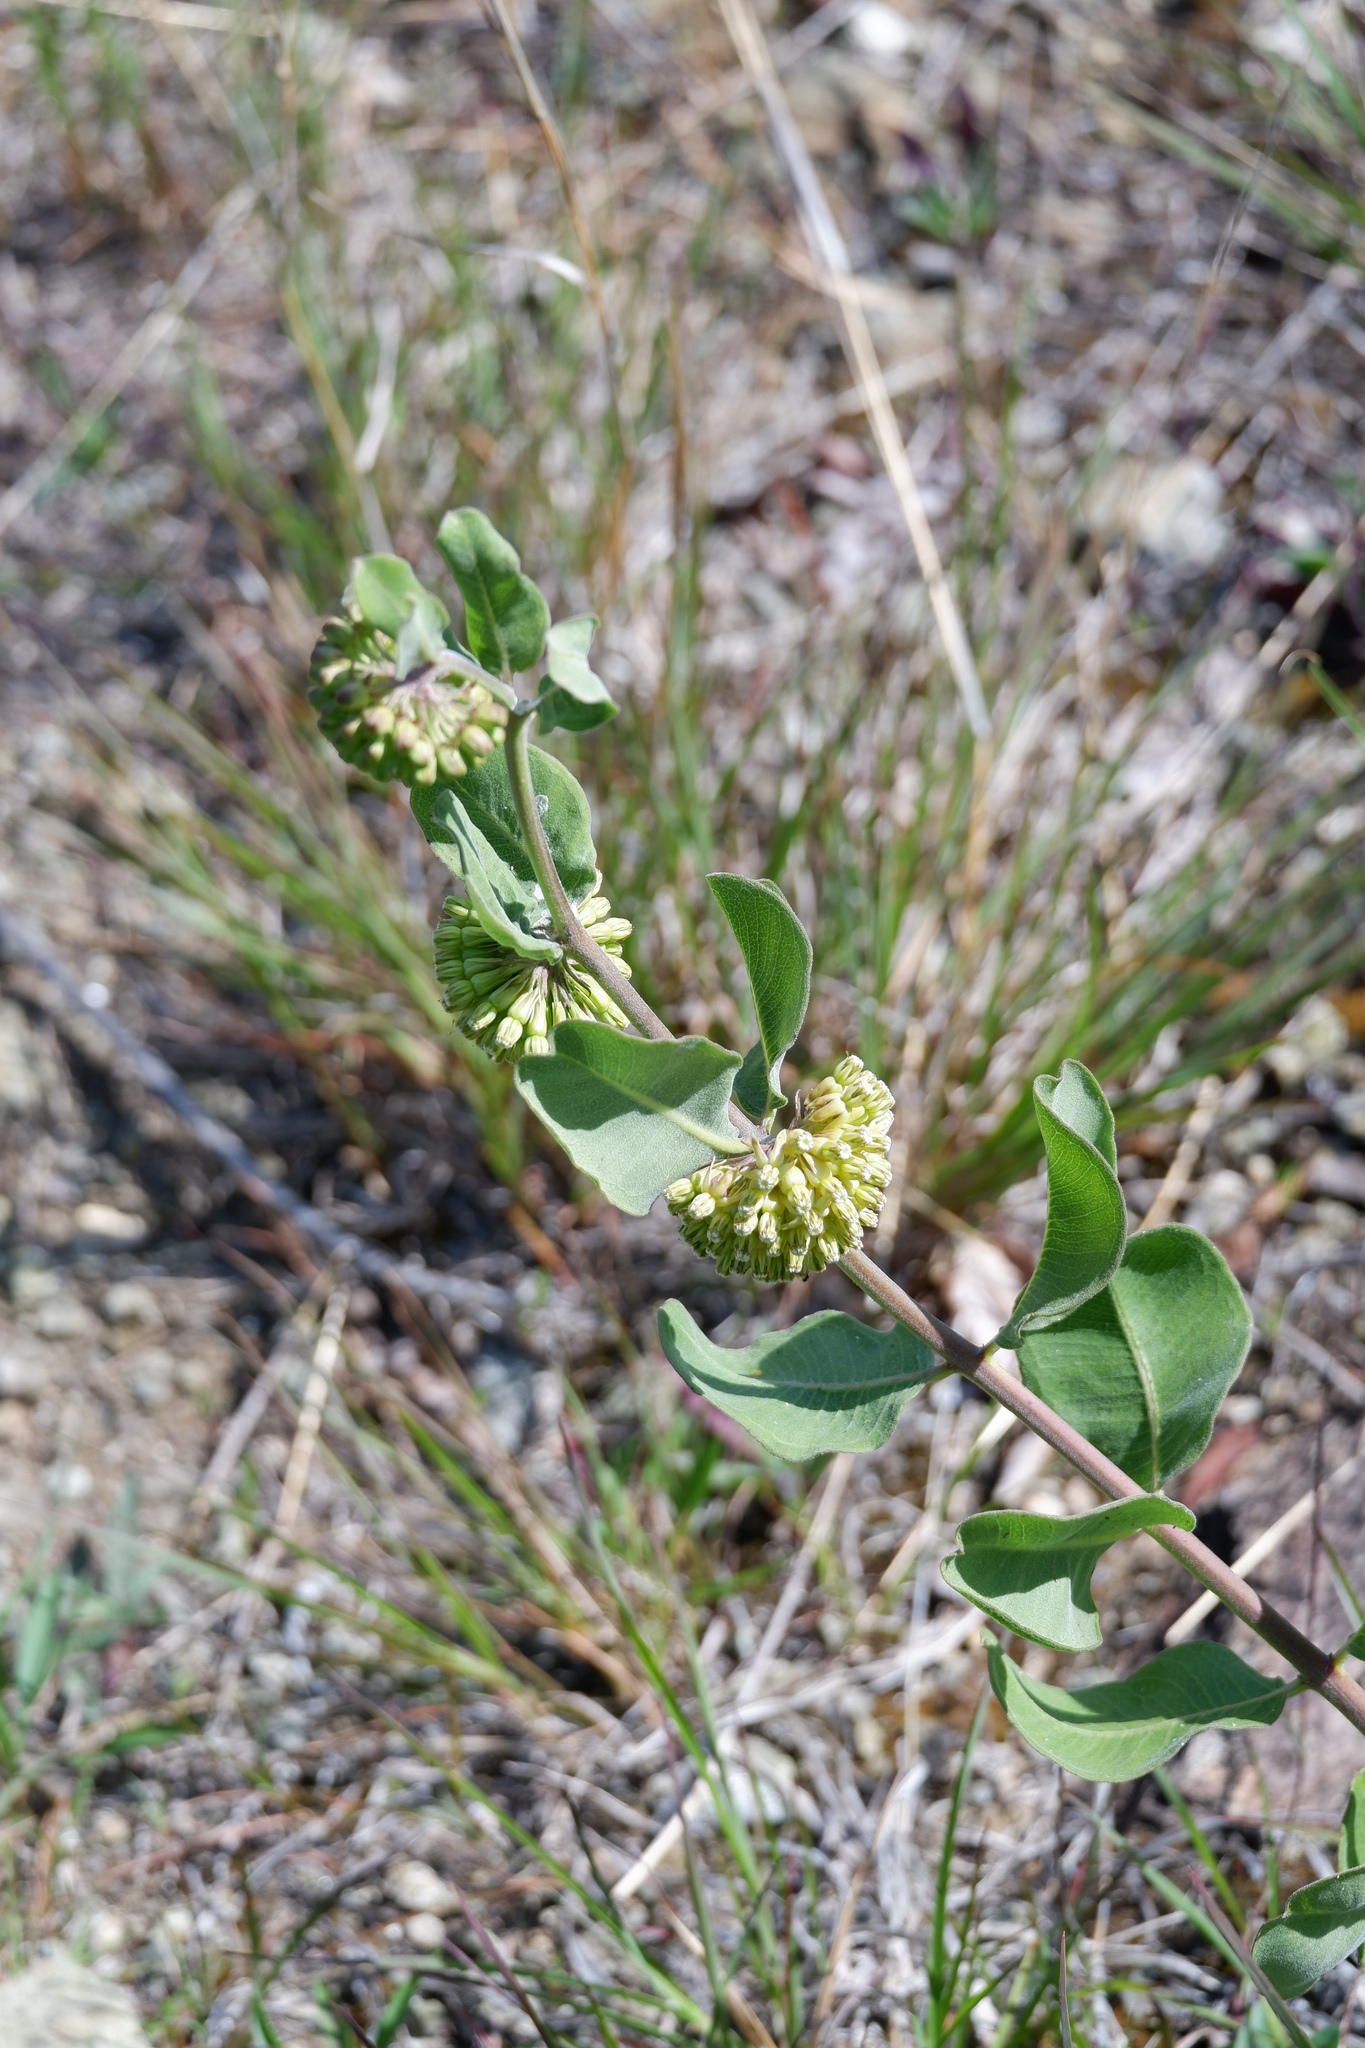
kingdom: Plantae
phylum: Tracheophyta
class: Magnoliopsida
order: Gentianales
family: Apocynaceae
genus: Asclepias
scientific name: Asclepias viridiflora
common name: Green comet milkweed
